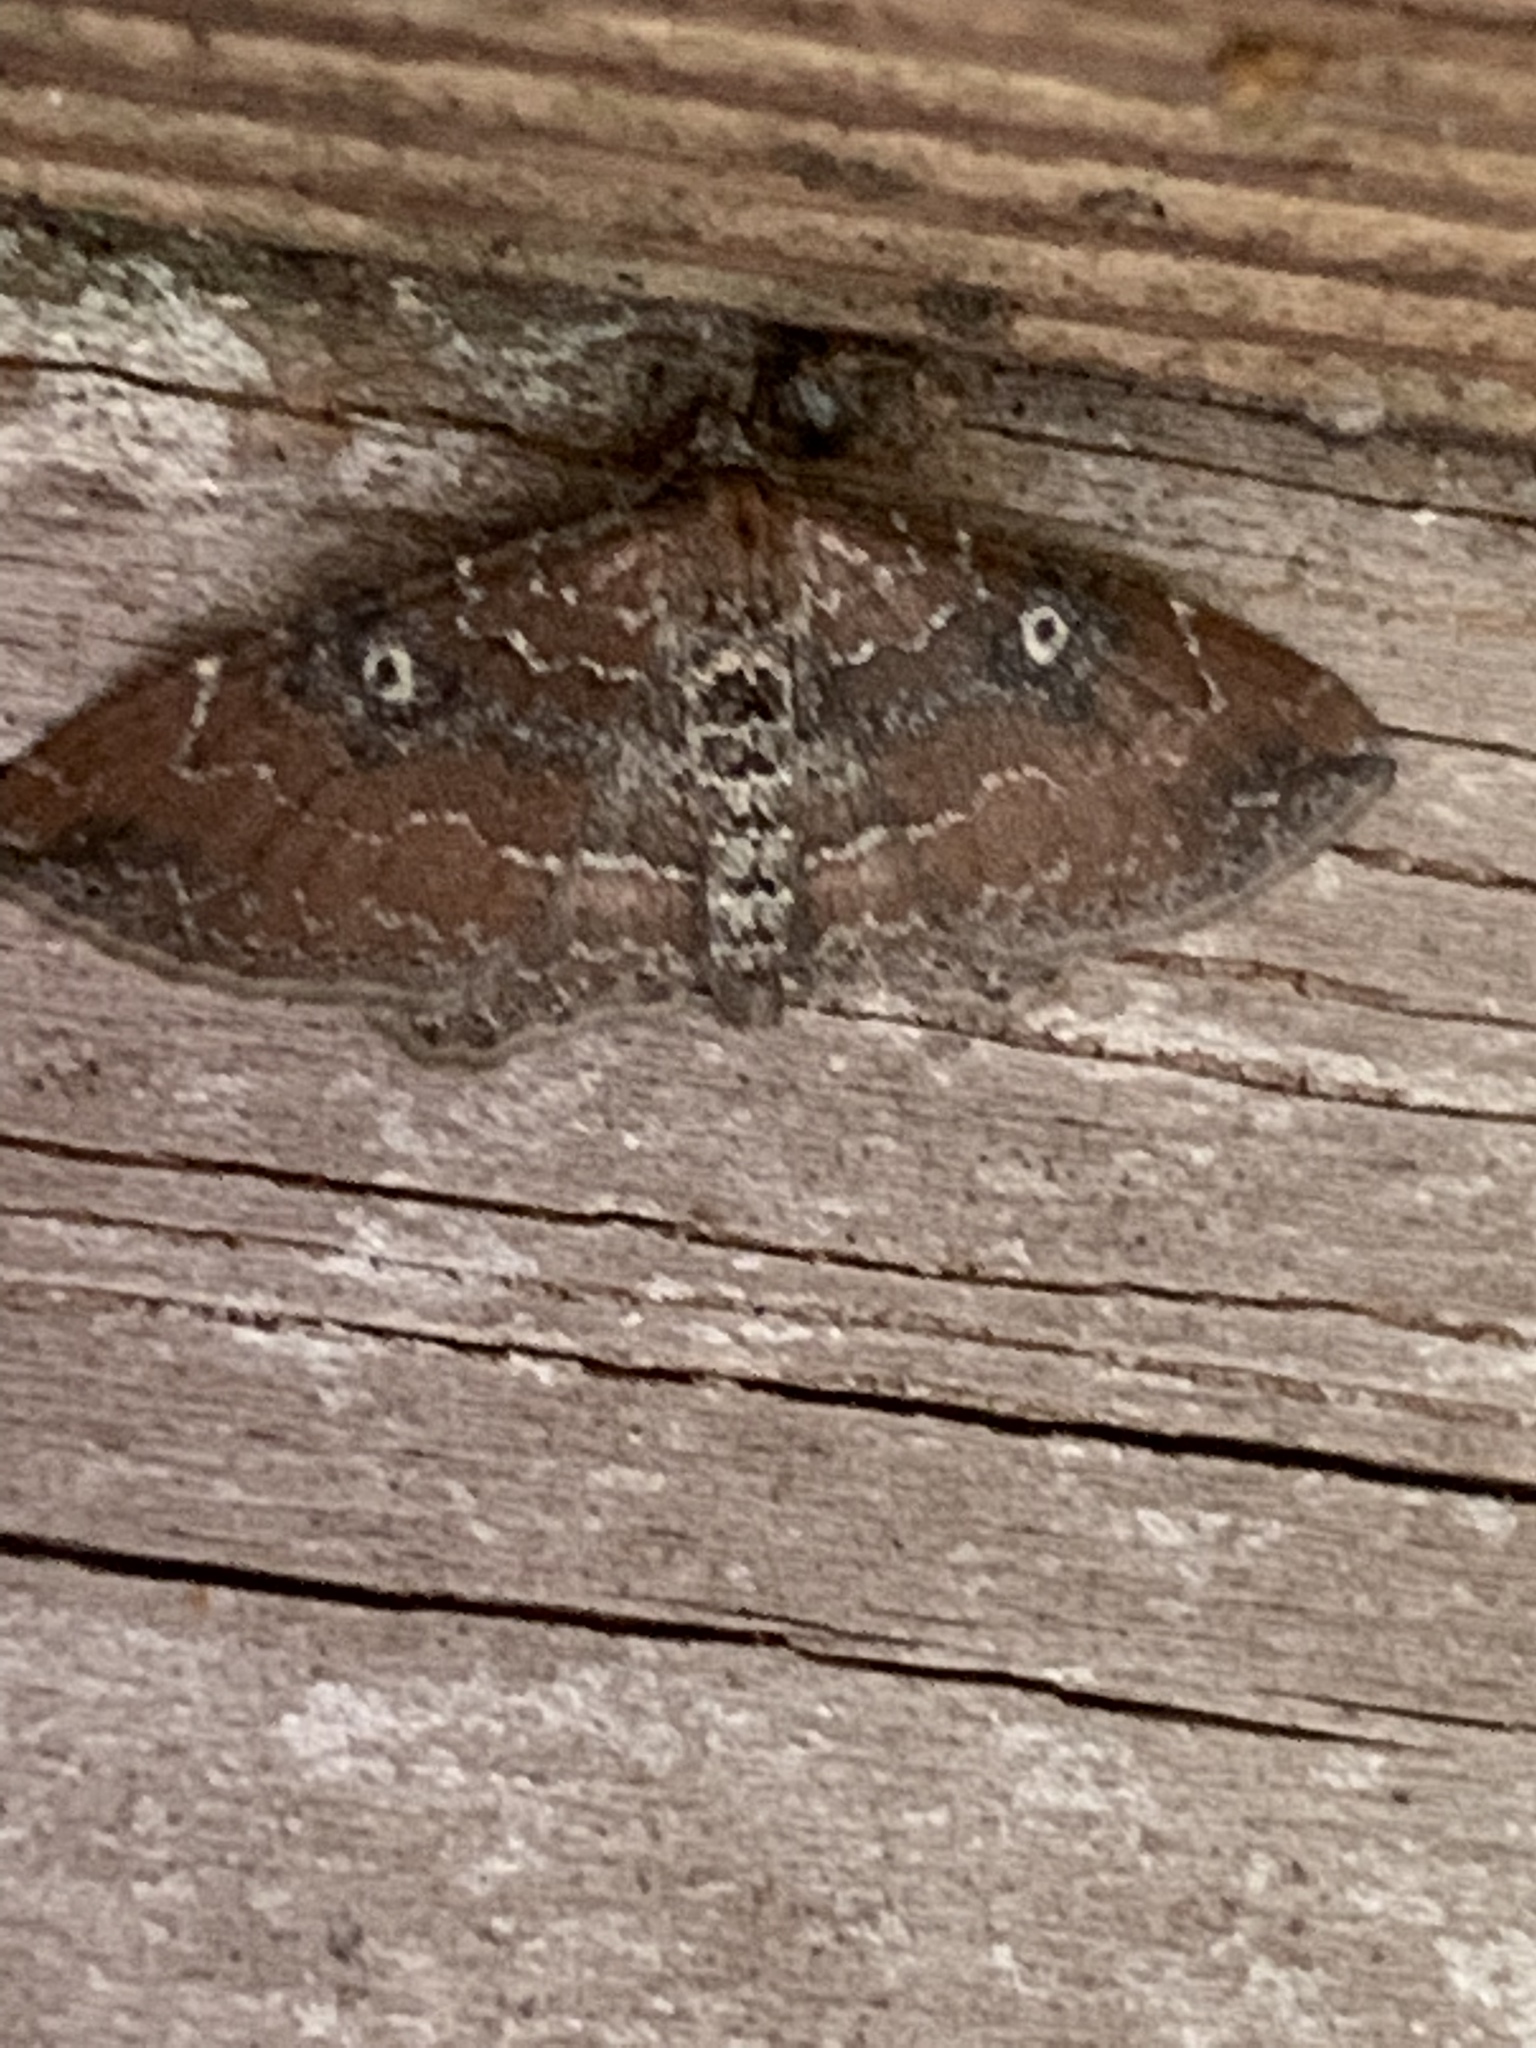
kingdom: Animalia
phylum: Arthropoda
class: Insecta
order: Lepidoptera
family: Geometridae
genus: Orthonama
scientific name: Orthonama obstipata
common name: The gem
